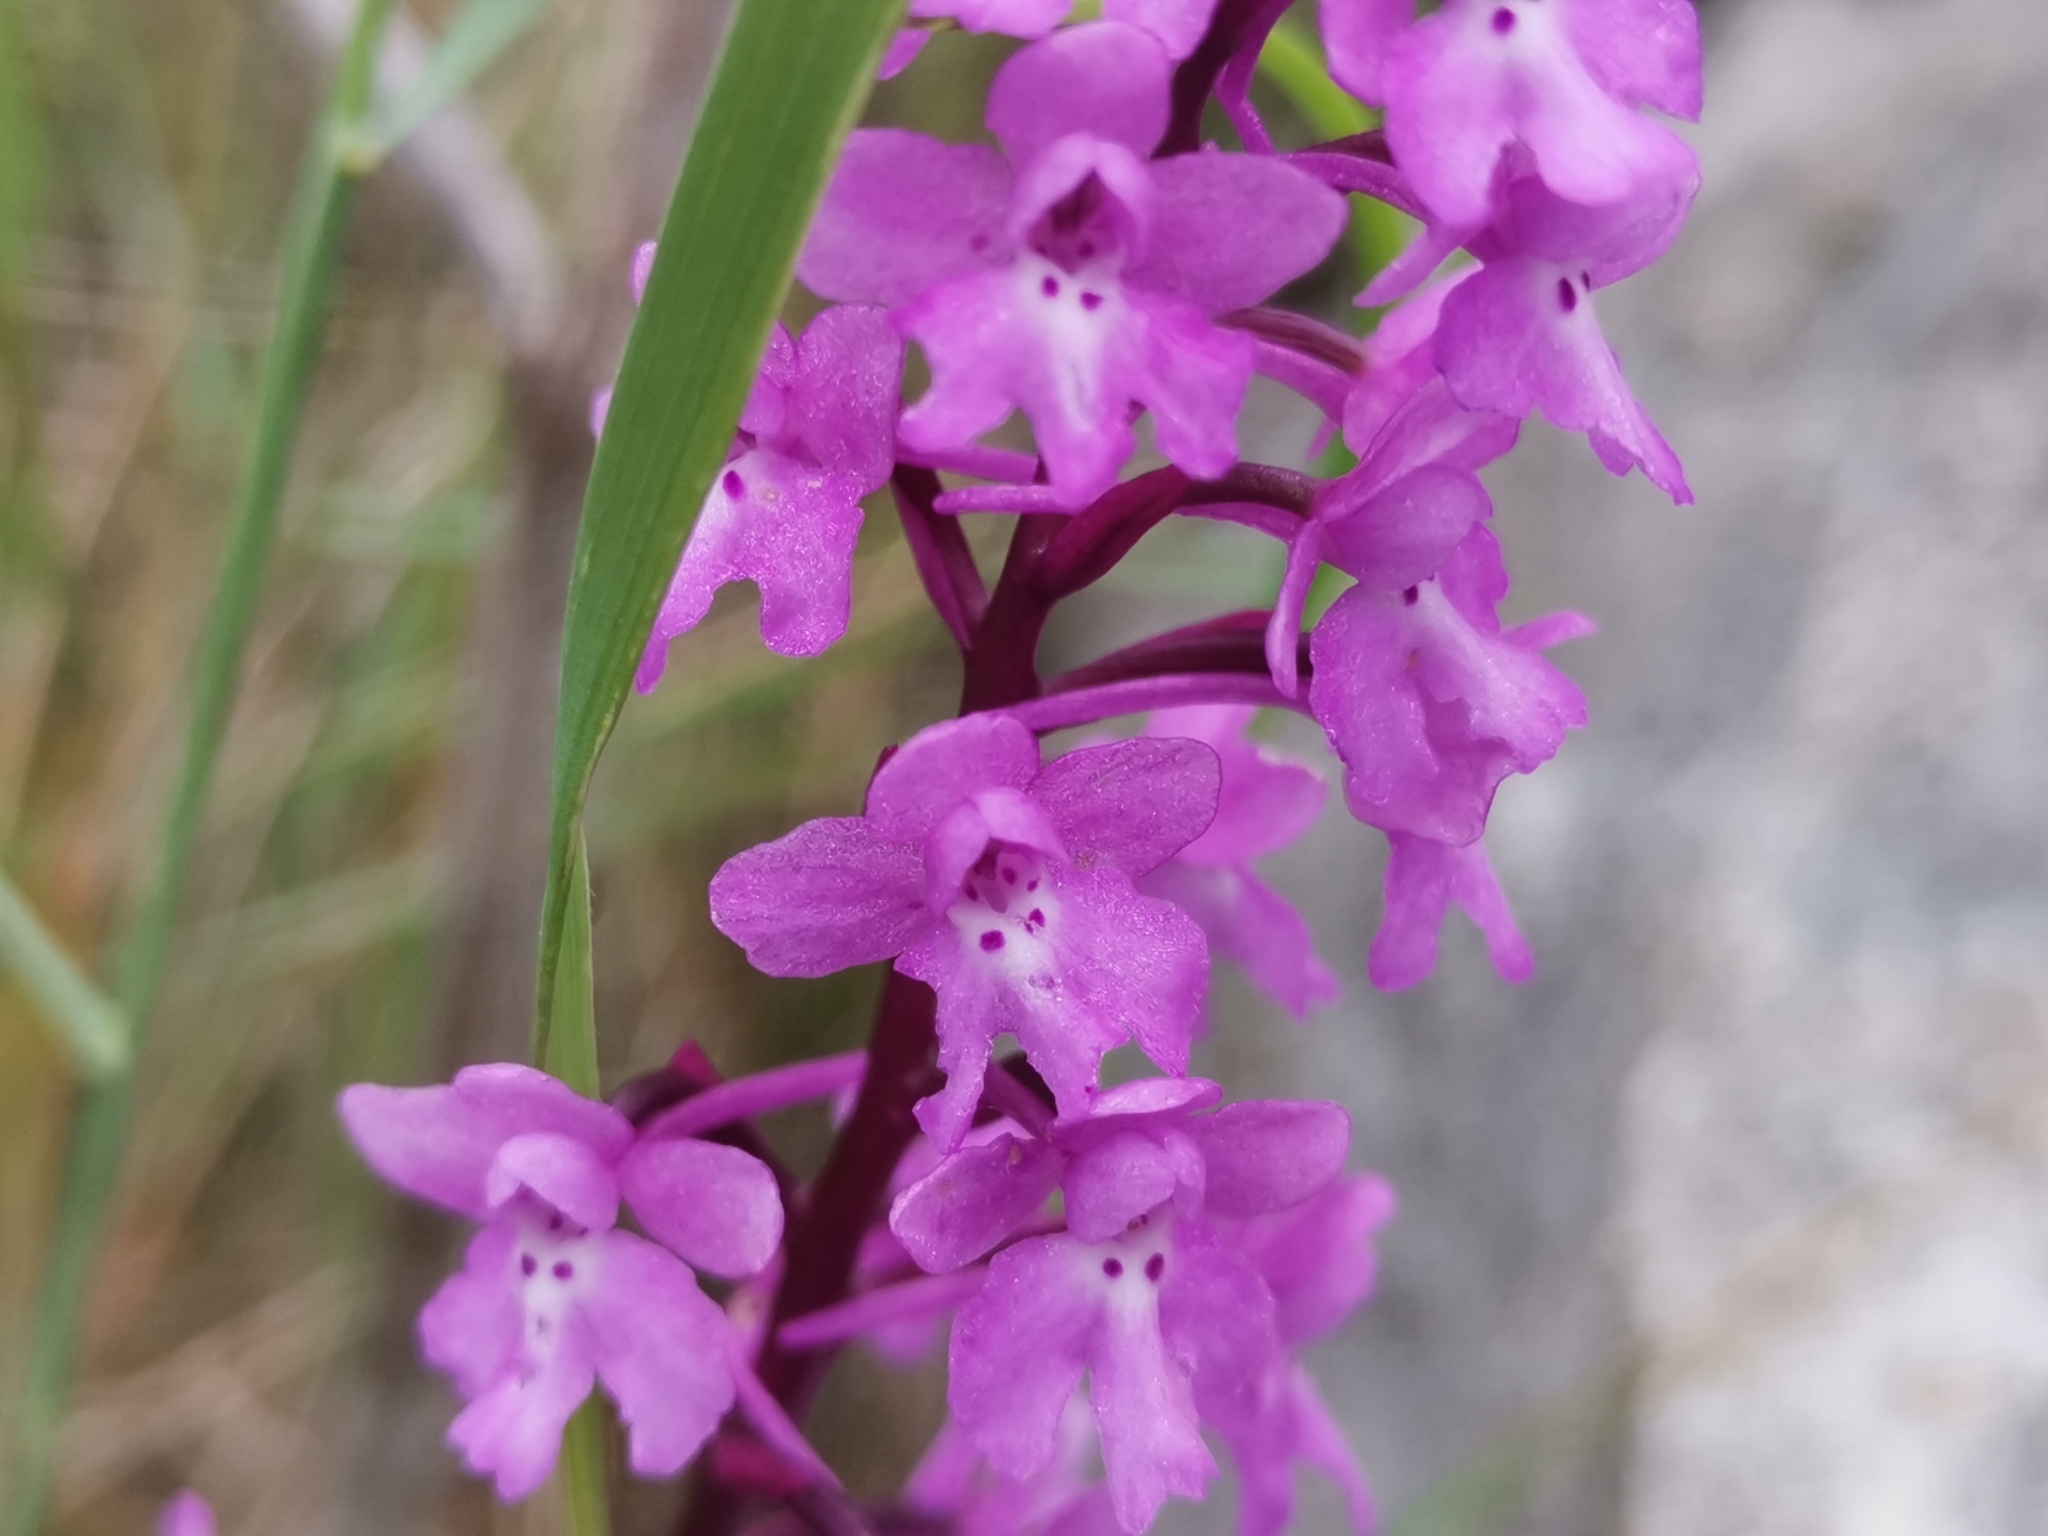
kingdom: Plantae
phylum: Tracheophyta
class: Liliopsida
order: Asparagales
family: Orchidaceae
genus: Orchis
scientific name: Orchis quadripunctata
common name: Four-spotted orchid
